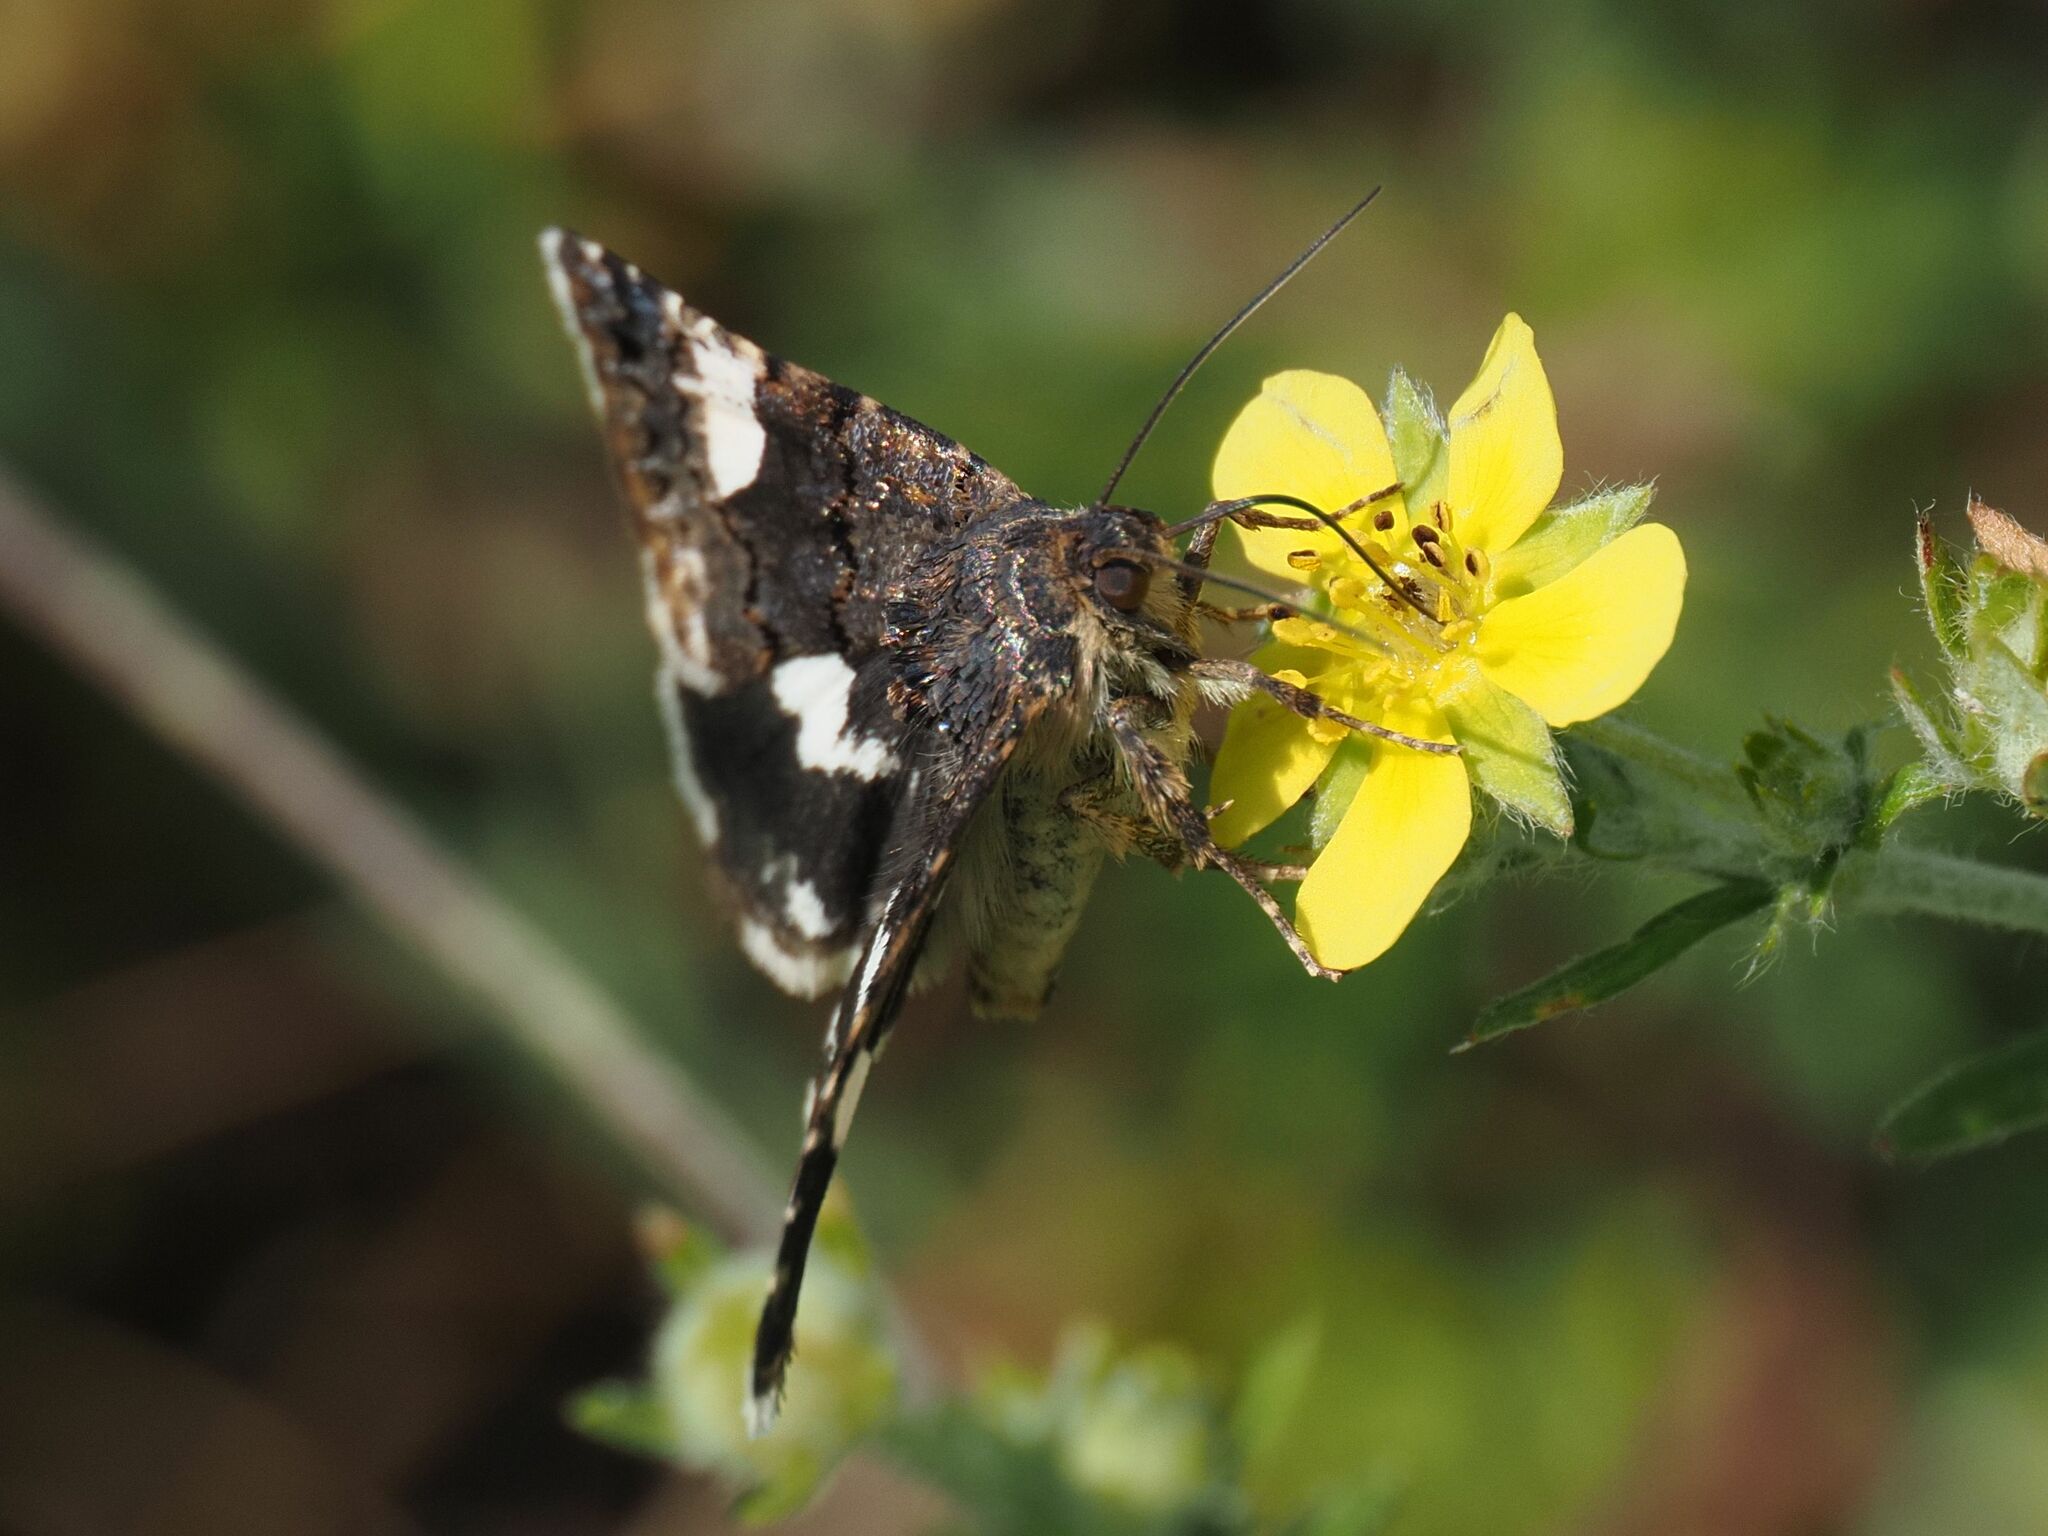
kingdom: Animalia
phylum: Arthropoda
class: Insecta
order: Lepidoptera
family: Erebidae
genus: Tyta
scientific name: Tyta luctuosa
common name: Four-spotted
